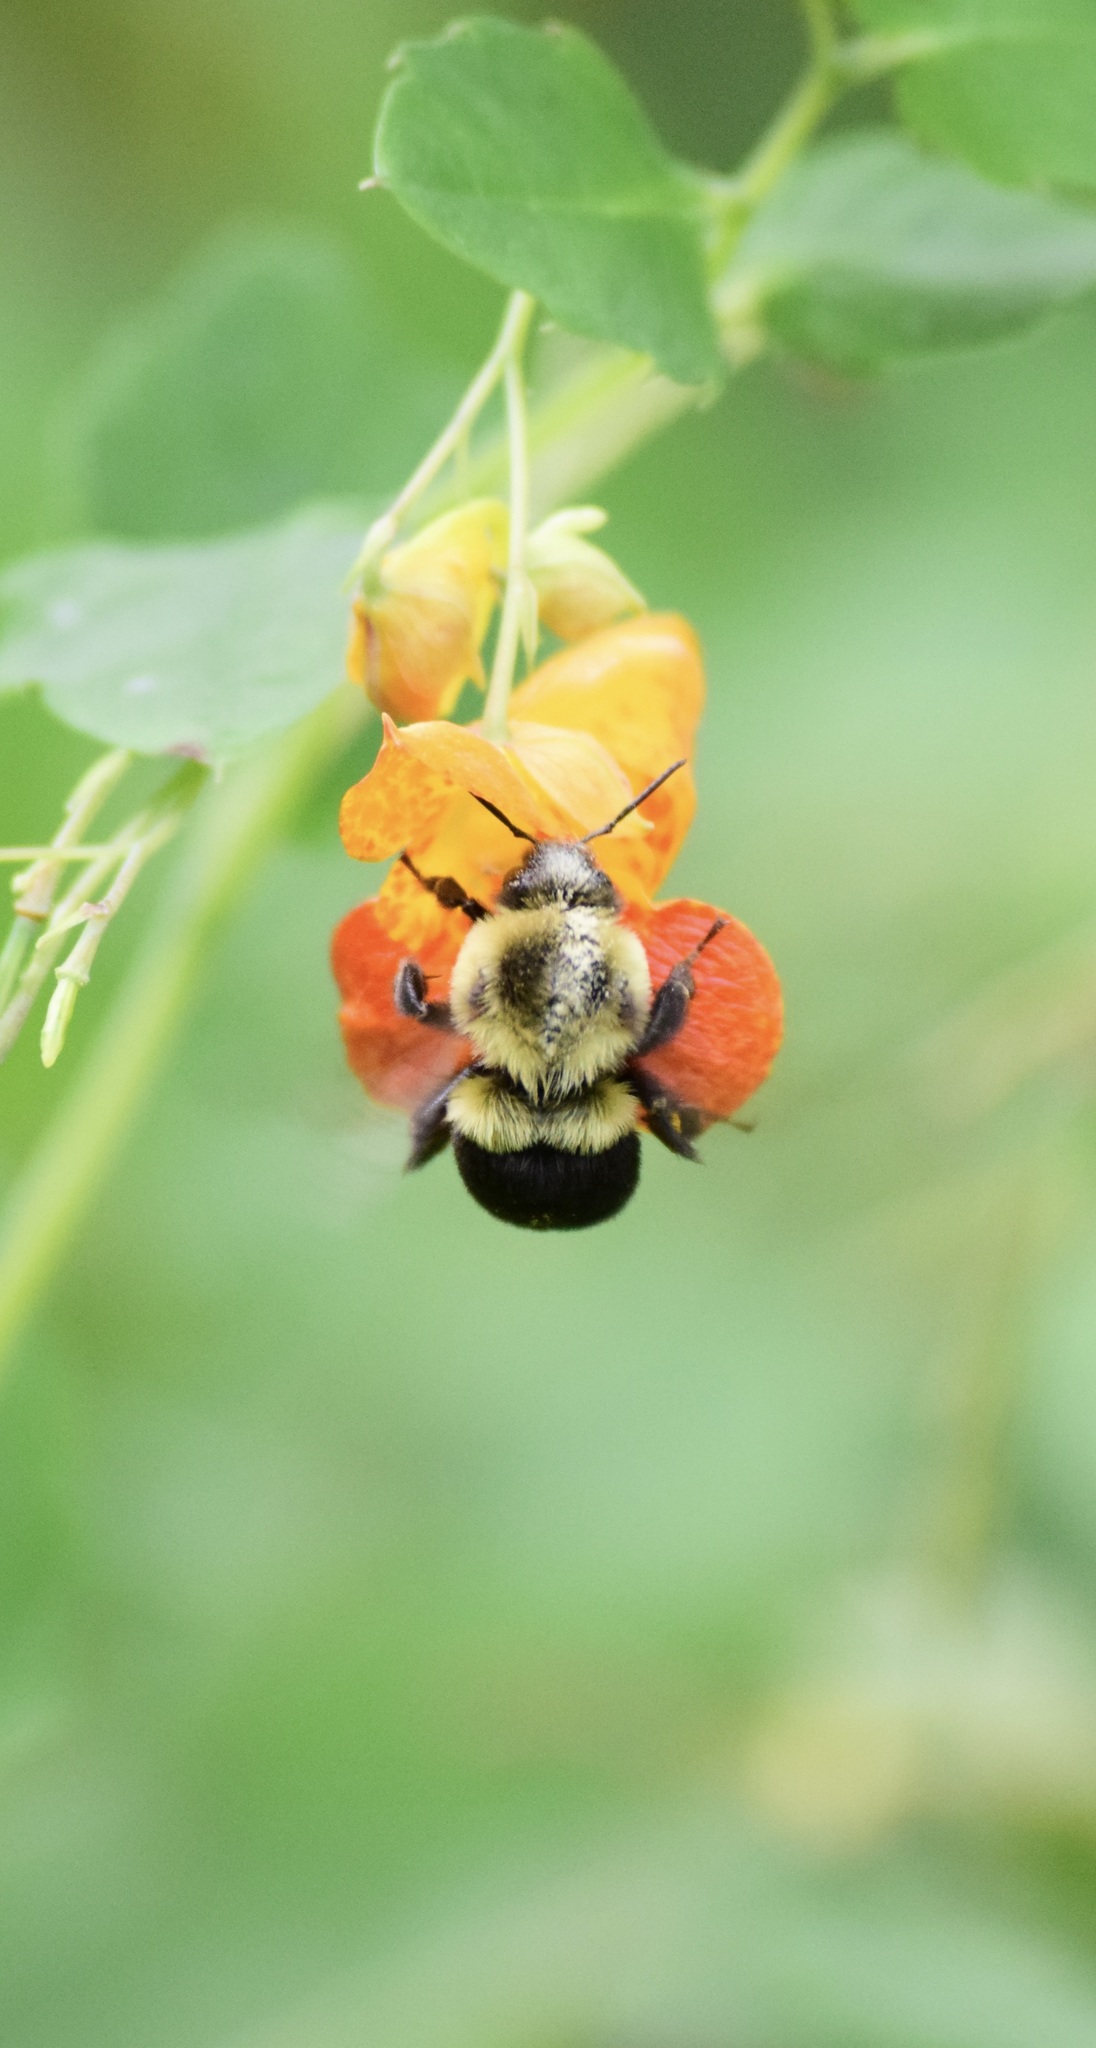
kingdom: Animalia
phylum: Arthropoda
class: Insecta
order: Hymenoptera
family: Apidae
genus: Bombus
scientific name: Bombus impatiens
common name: Common eastern bumble bee
